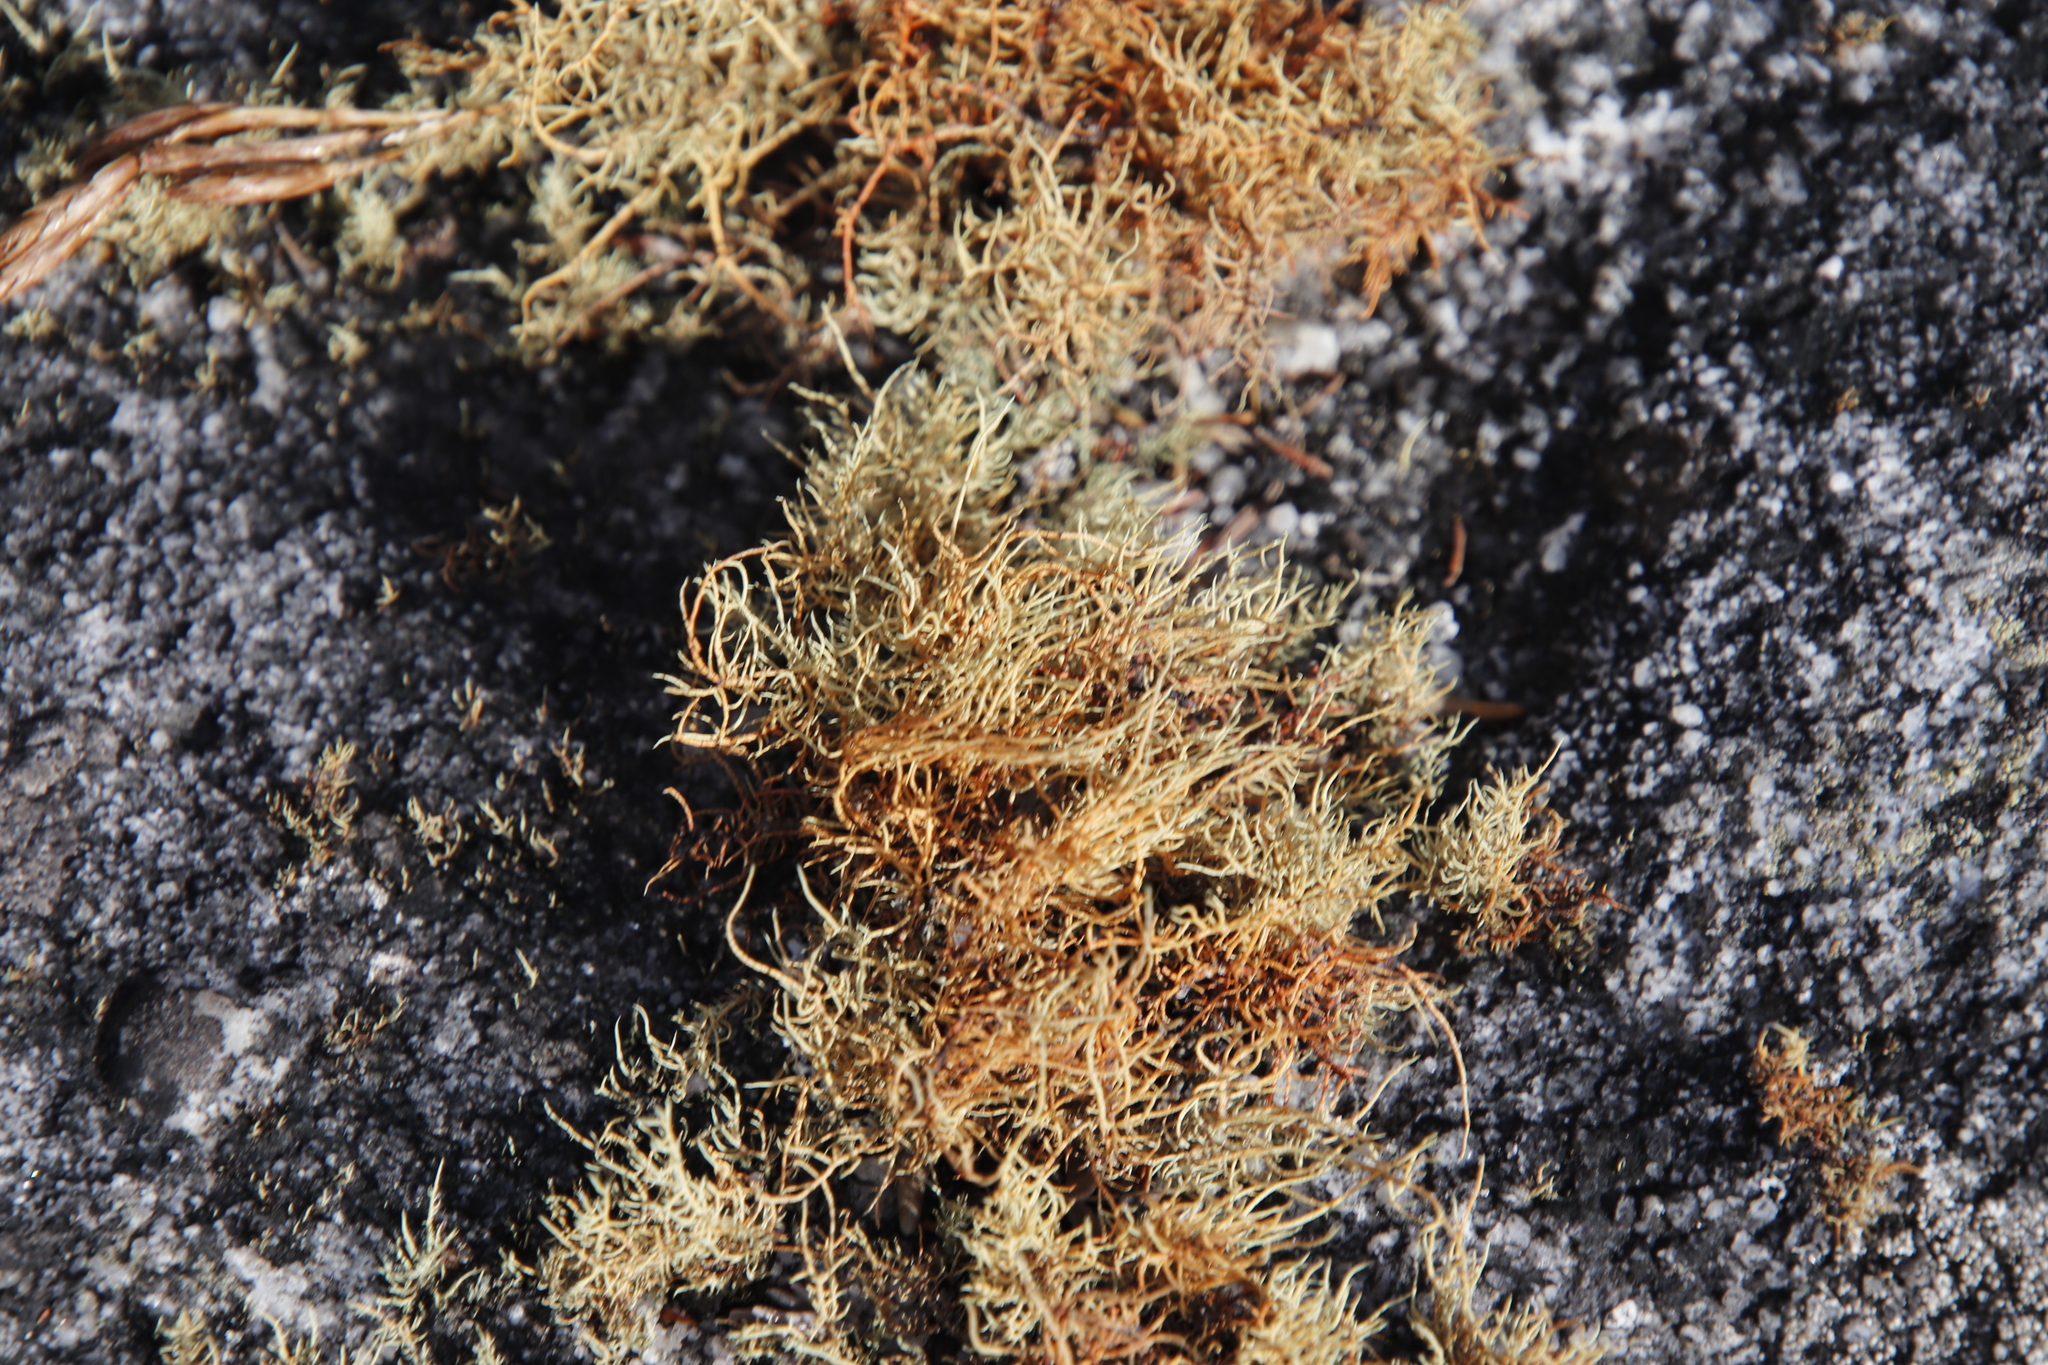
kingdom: Fungi
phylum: Ascomycota
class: Lecanoromycetes
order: Lecanorales
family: Parmeliaceae
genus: Usnea
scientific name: Usnea maculata
